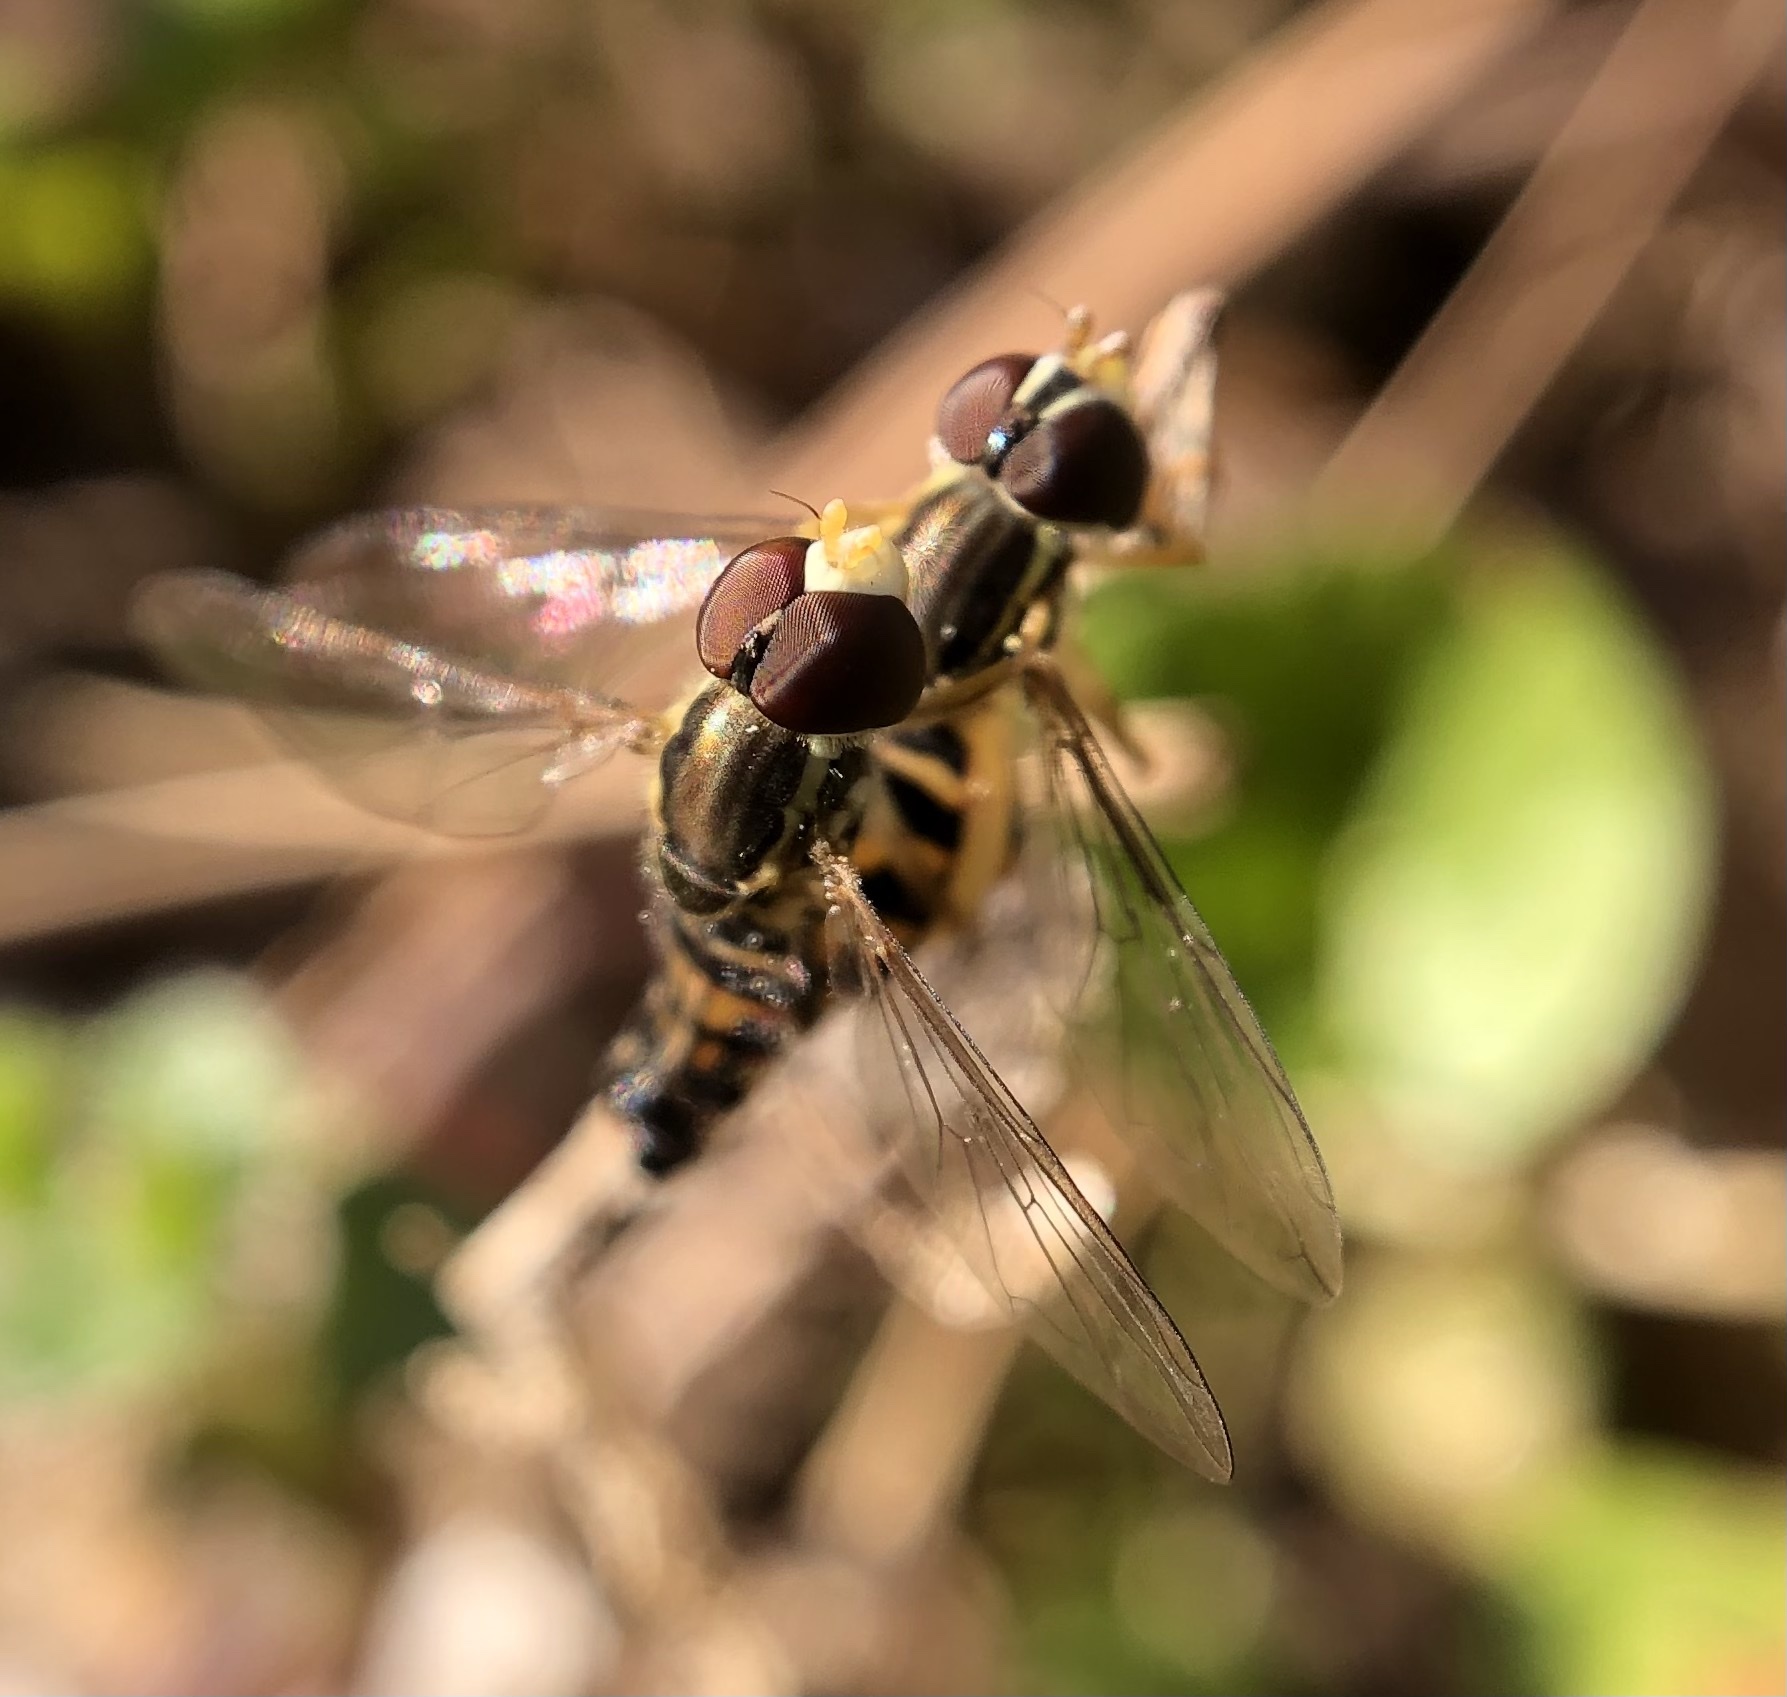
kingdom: Animalia
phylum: Arthropoda
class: Insecta
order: Diptera
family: Syrphidae
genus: Toxomerus
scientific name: Toxomerus geminatus
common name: Eastern calligrapher
